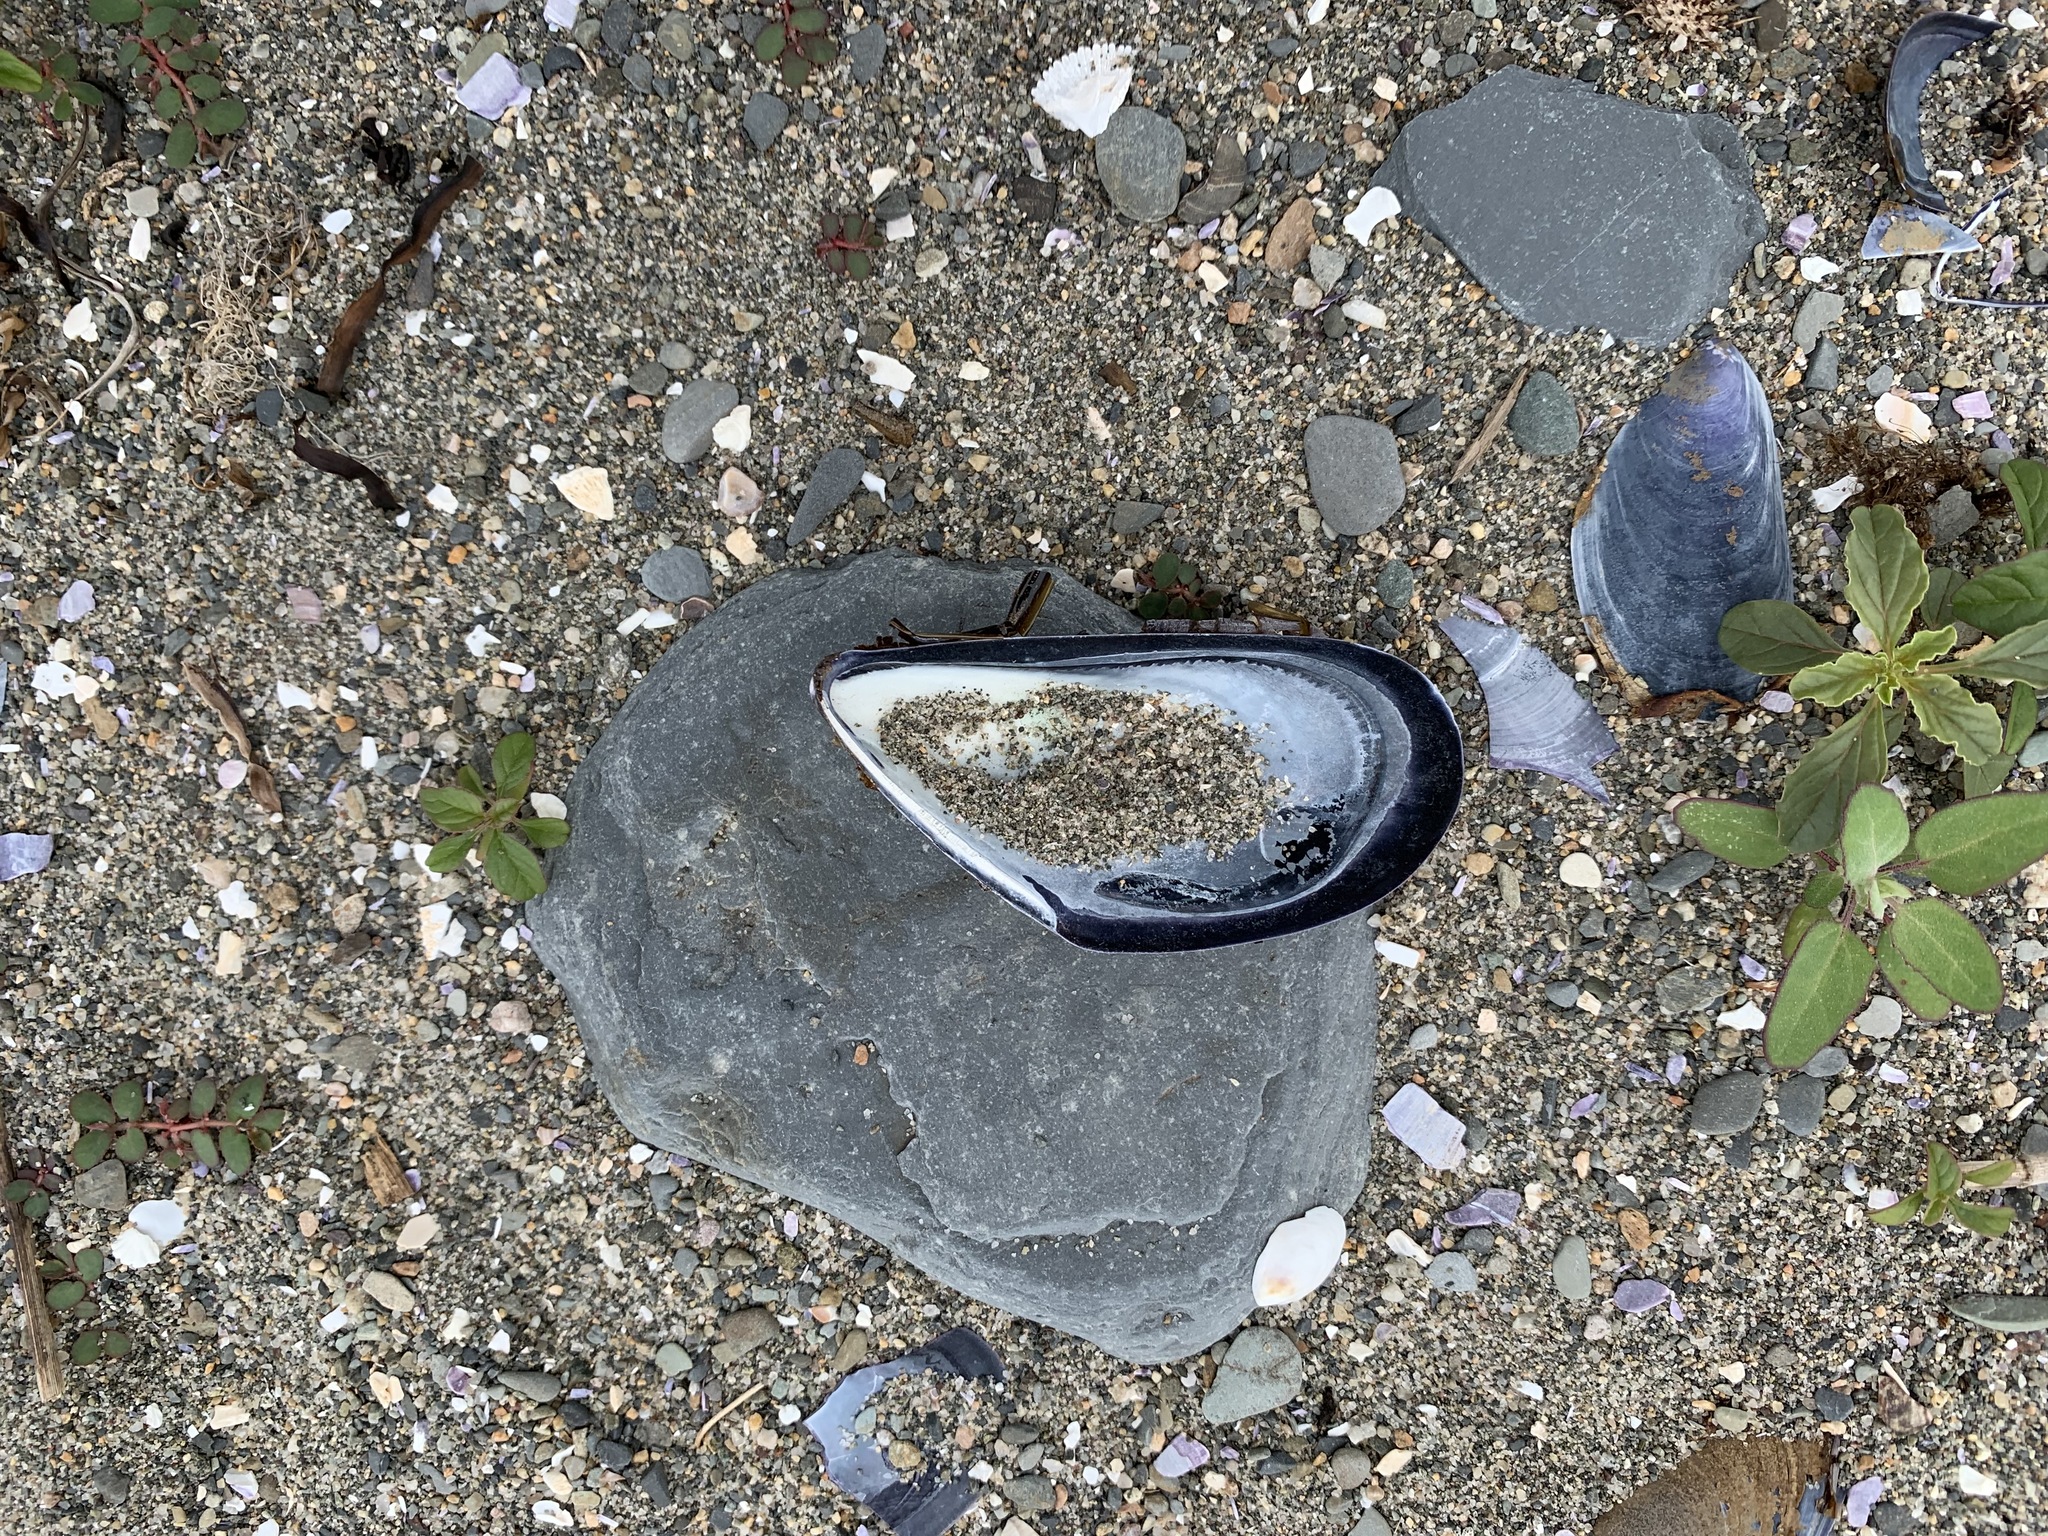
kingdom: Animalia
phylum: Mollusca
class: Bivalvia
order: Mytilida
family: Mytilidae
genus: Mytilus
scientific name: Mytilus edulis
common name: Blue mussel
